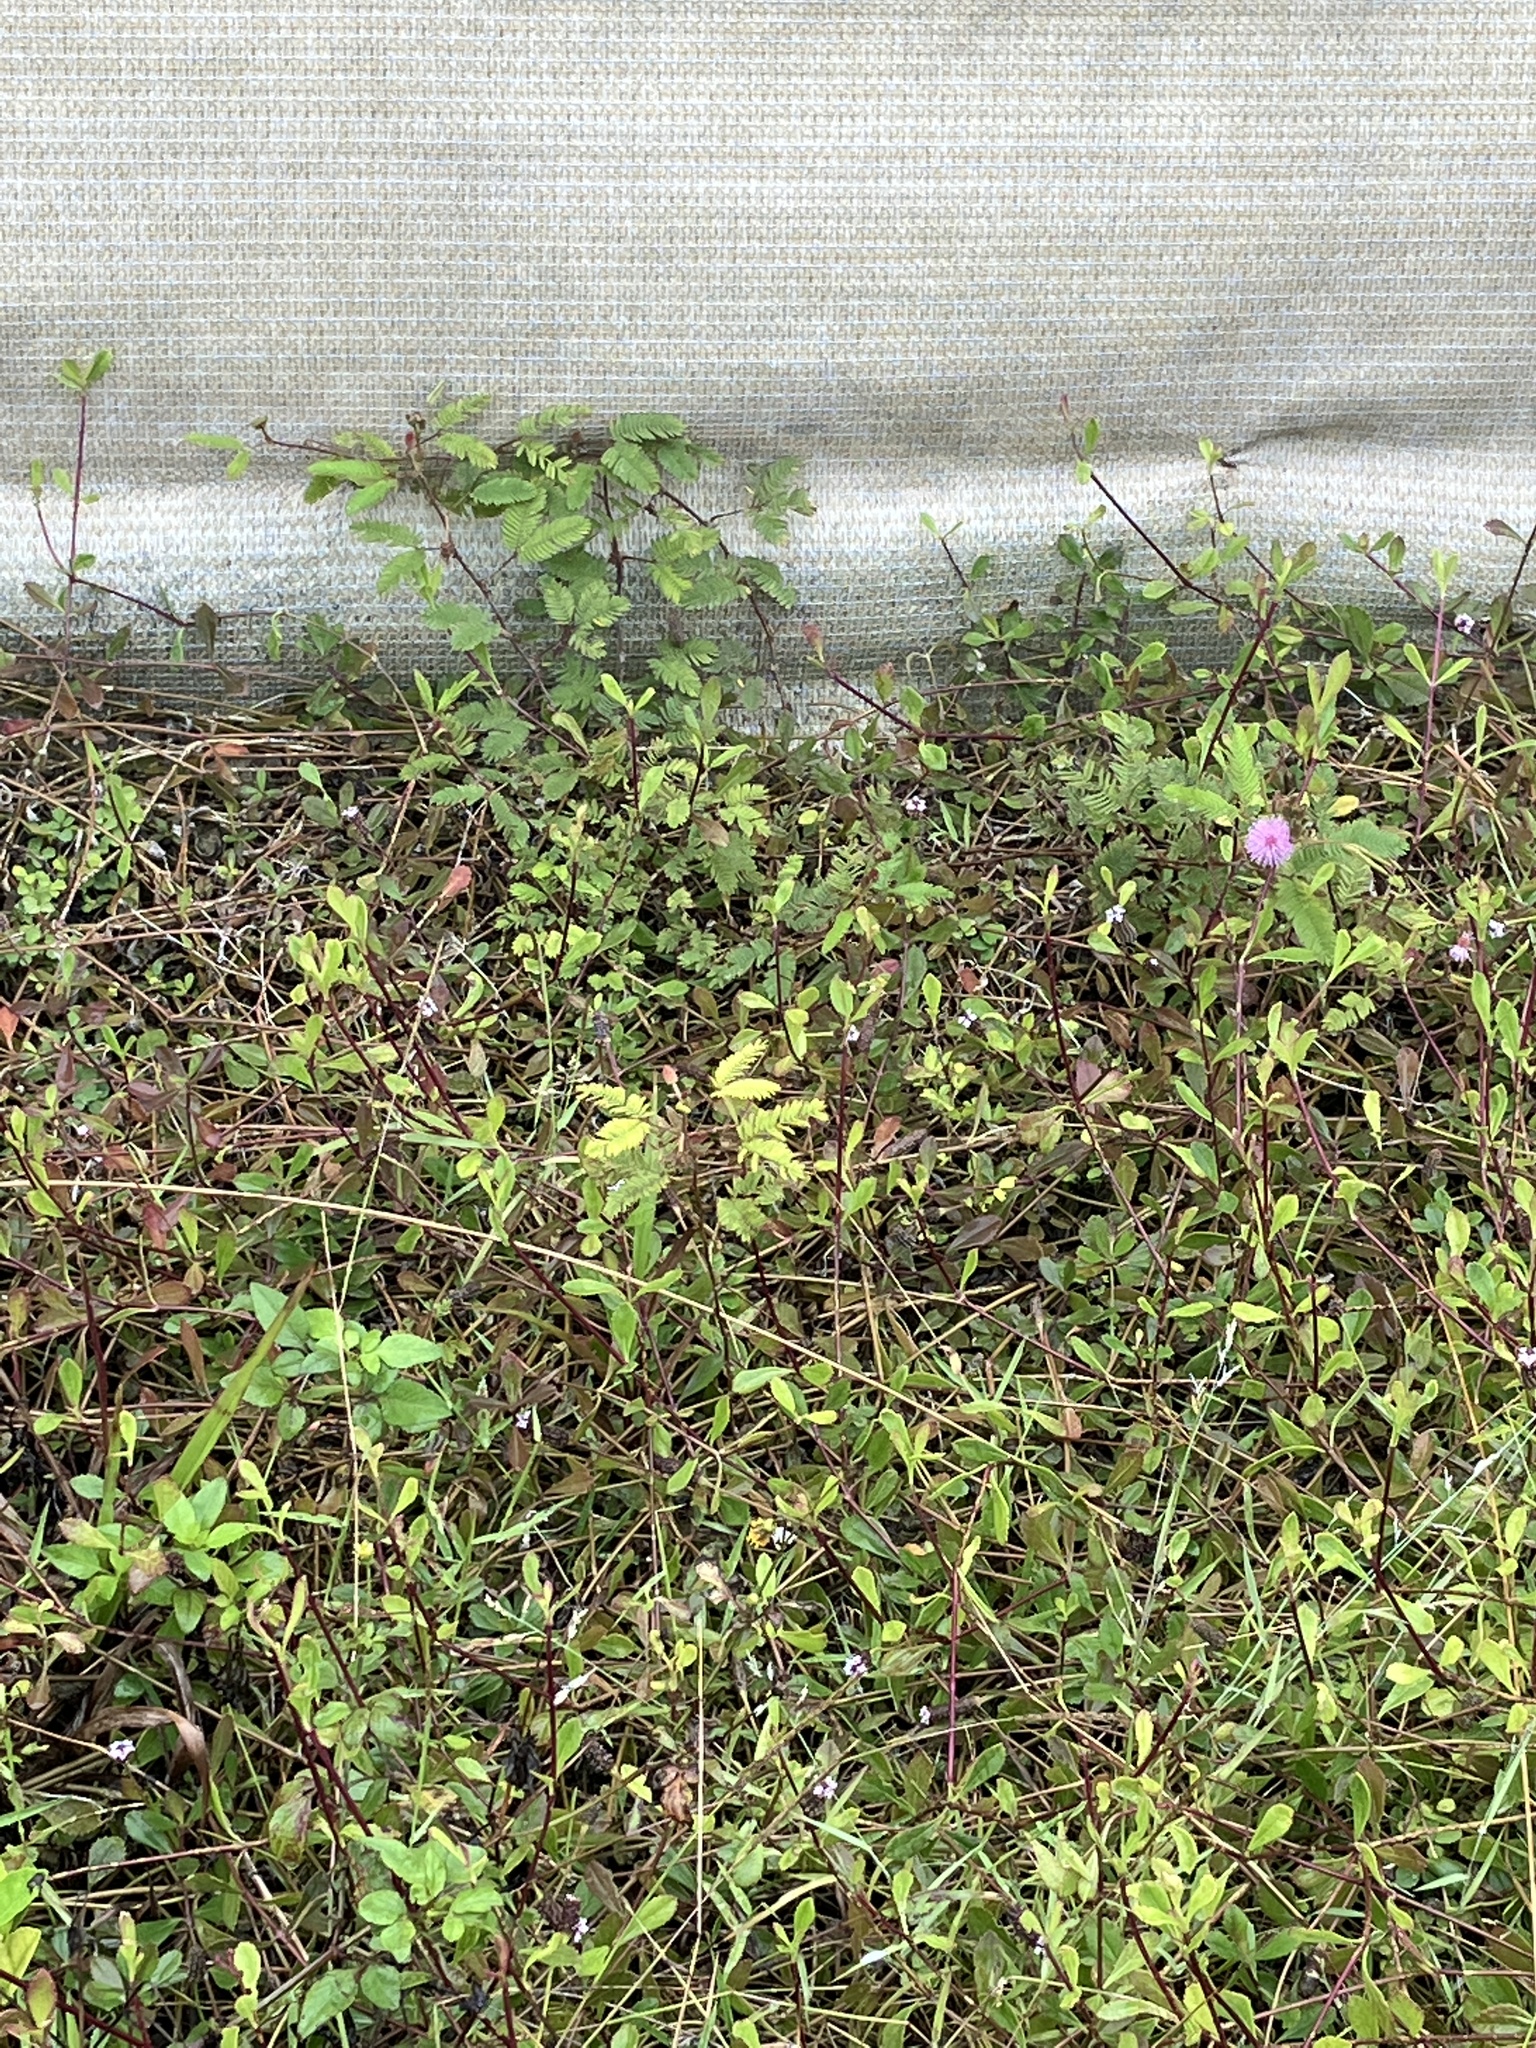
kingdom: Plantae
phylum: Tracheophyta
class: Magnoliopsida
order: Fabales
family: Fabaceae
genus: Mimosa
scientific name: Mimosa pudica
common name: Sensitive plant
